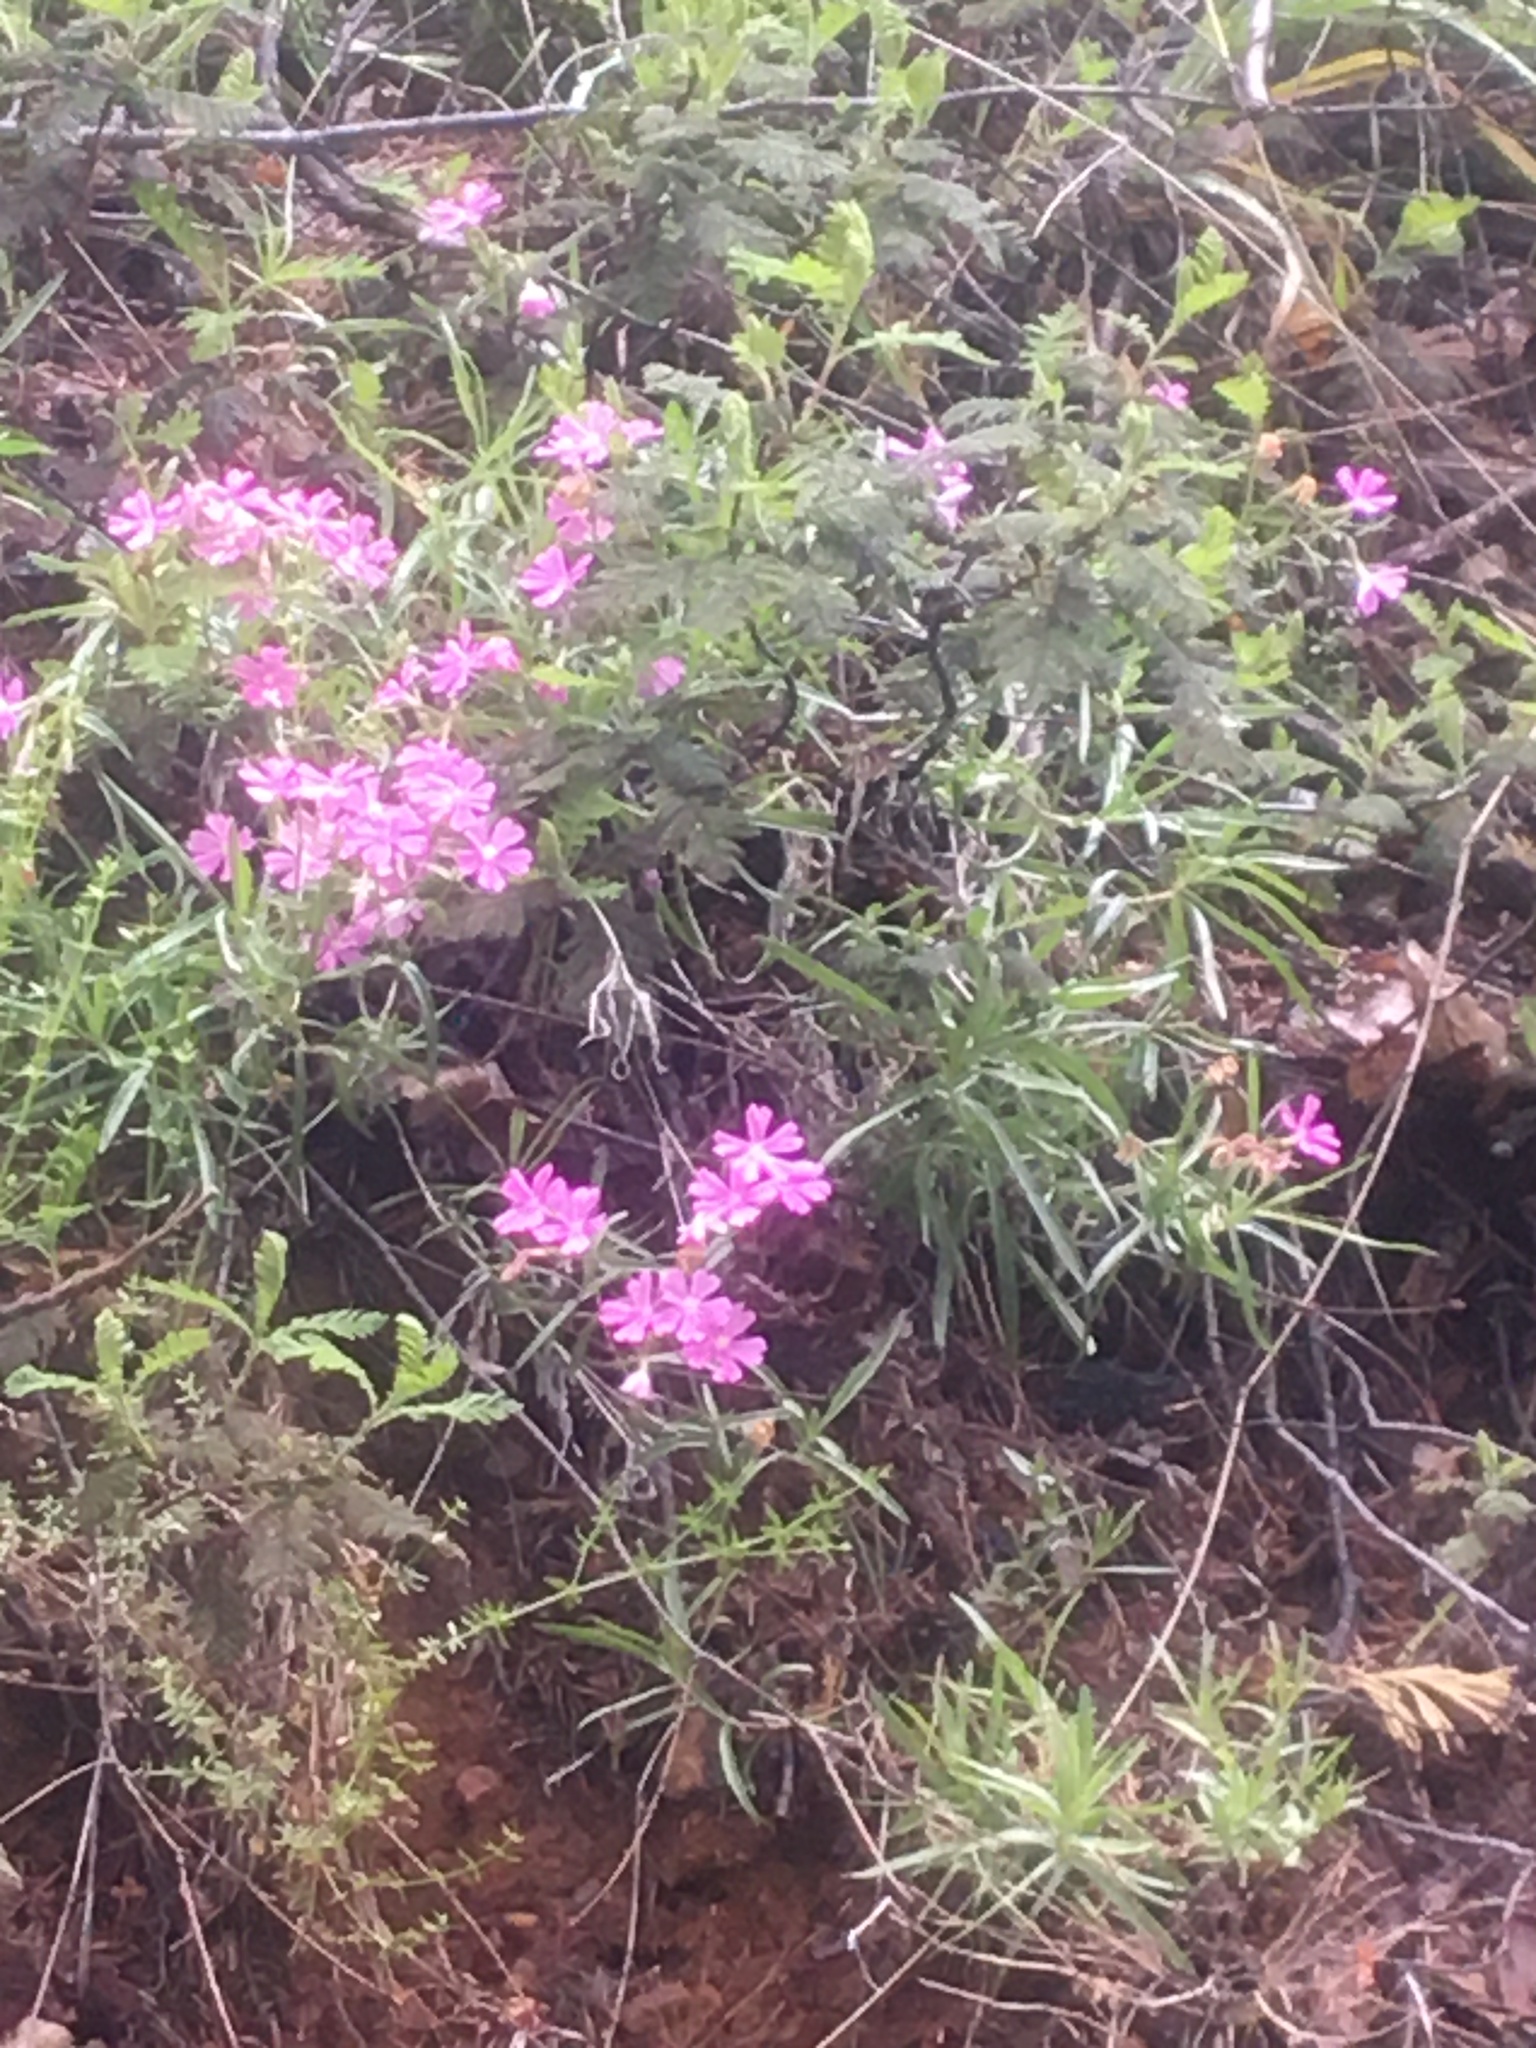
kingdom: Plantae
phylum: Tracheophyta
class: Magnoliopsida
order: Ericales
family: Polemoniaceae
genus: Phlox
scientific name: Phlox speciosa
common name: Bush phlox
